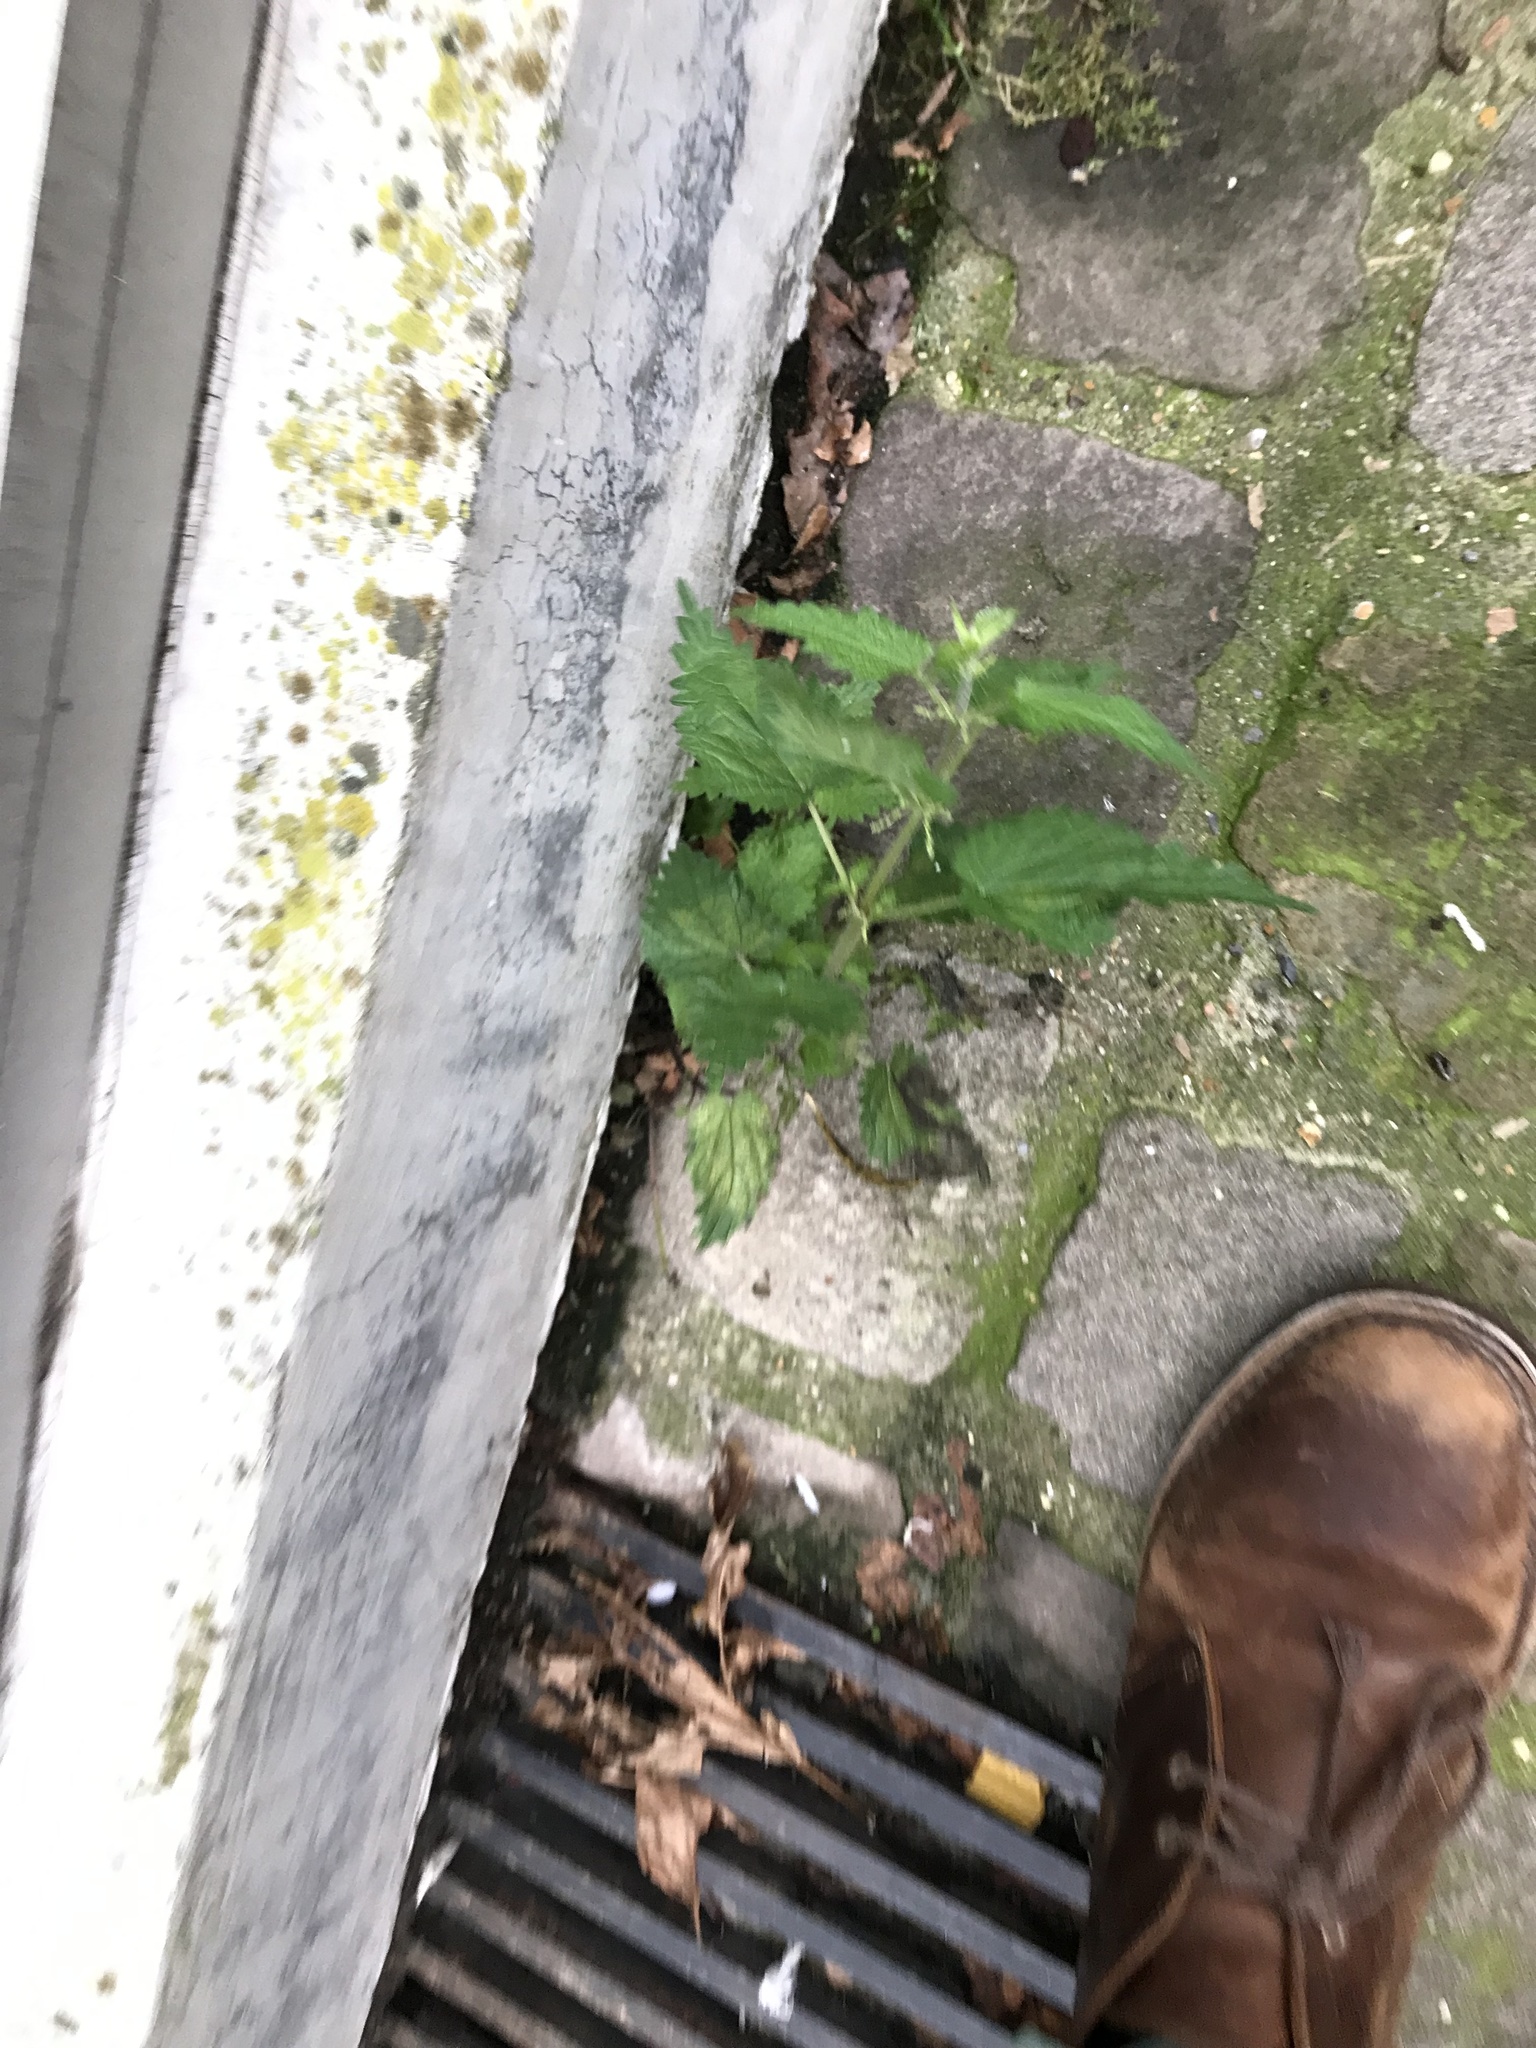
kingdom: Plantae
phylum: Tracheophyta
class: Magnoliopsida
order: Rosales
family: Urticaceae
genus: Urtica
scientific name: Urtica dioica
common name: Common nettle
